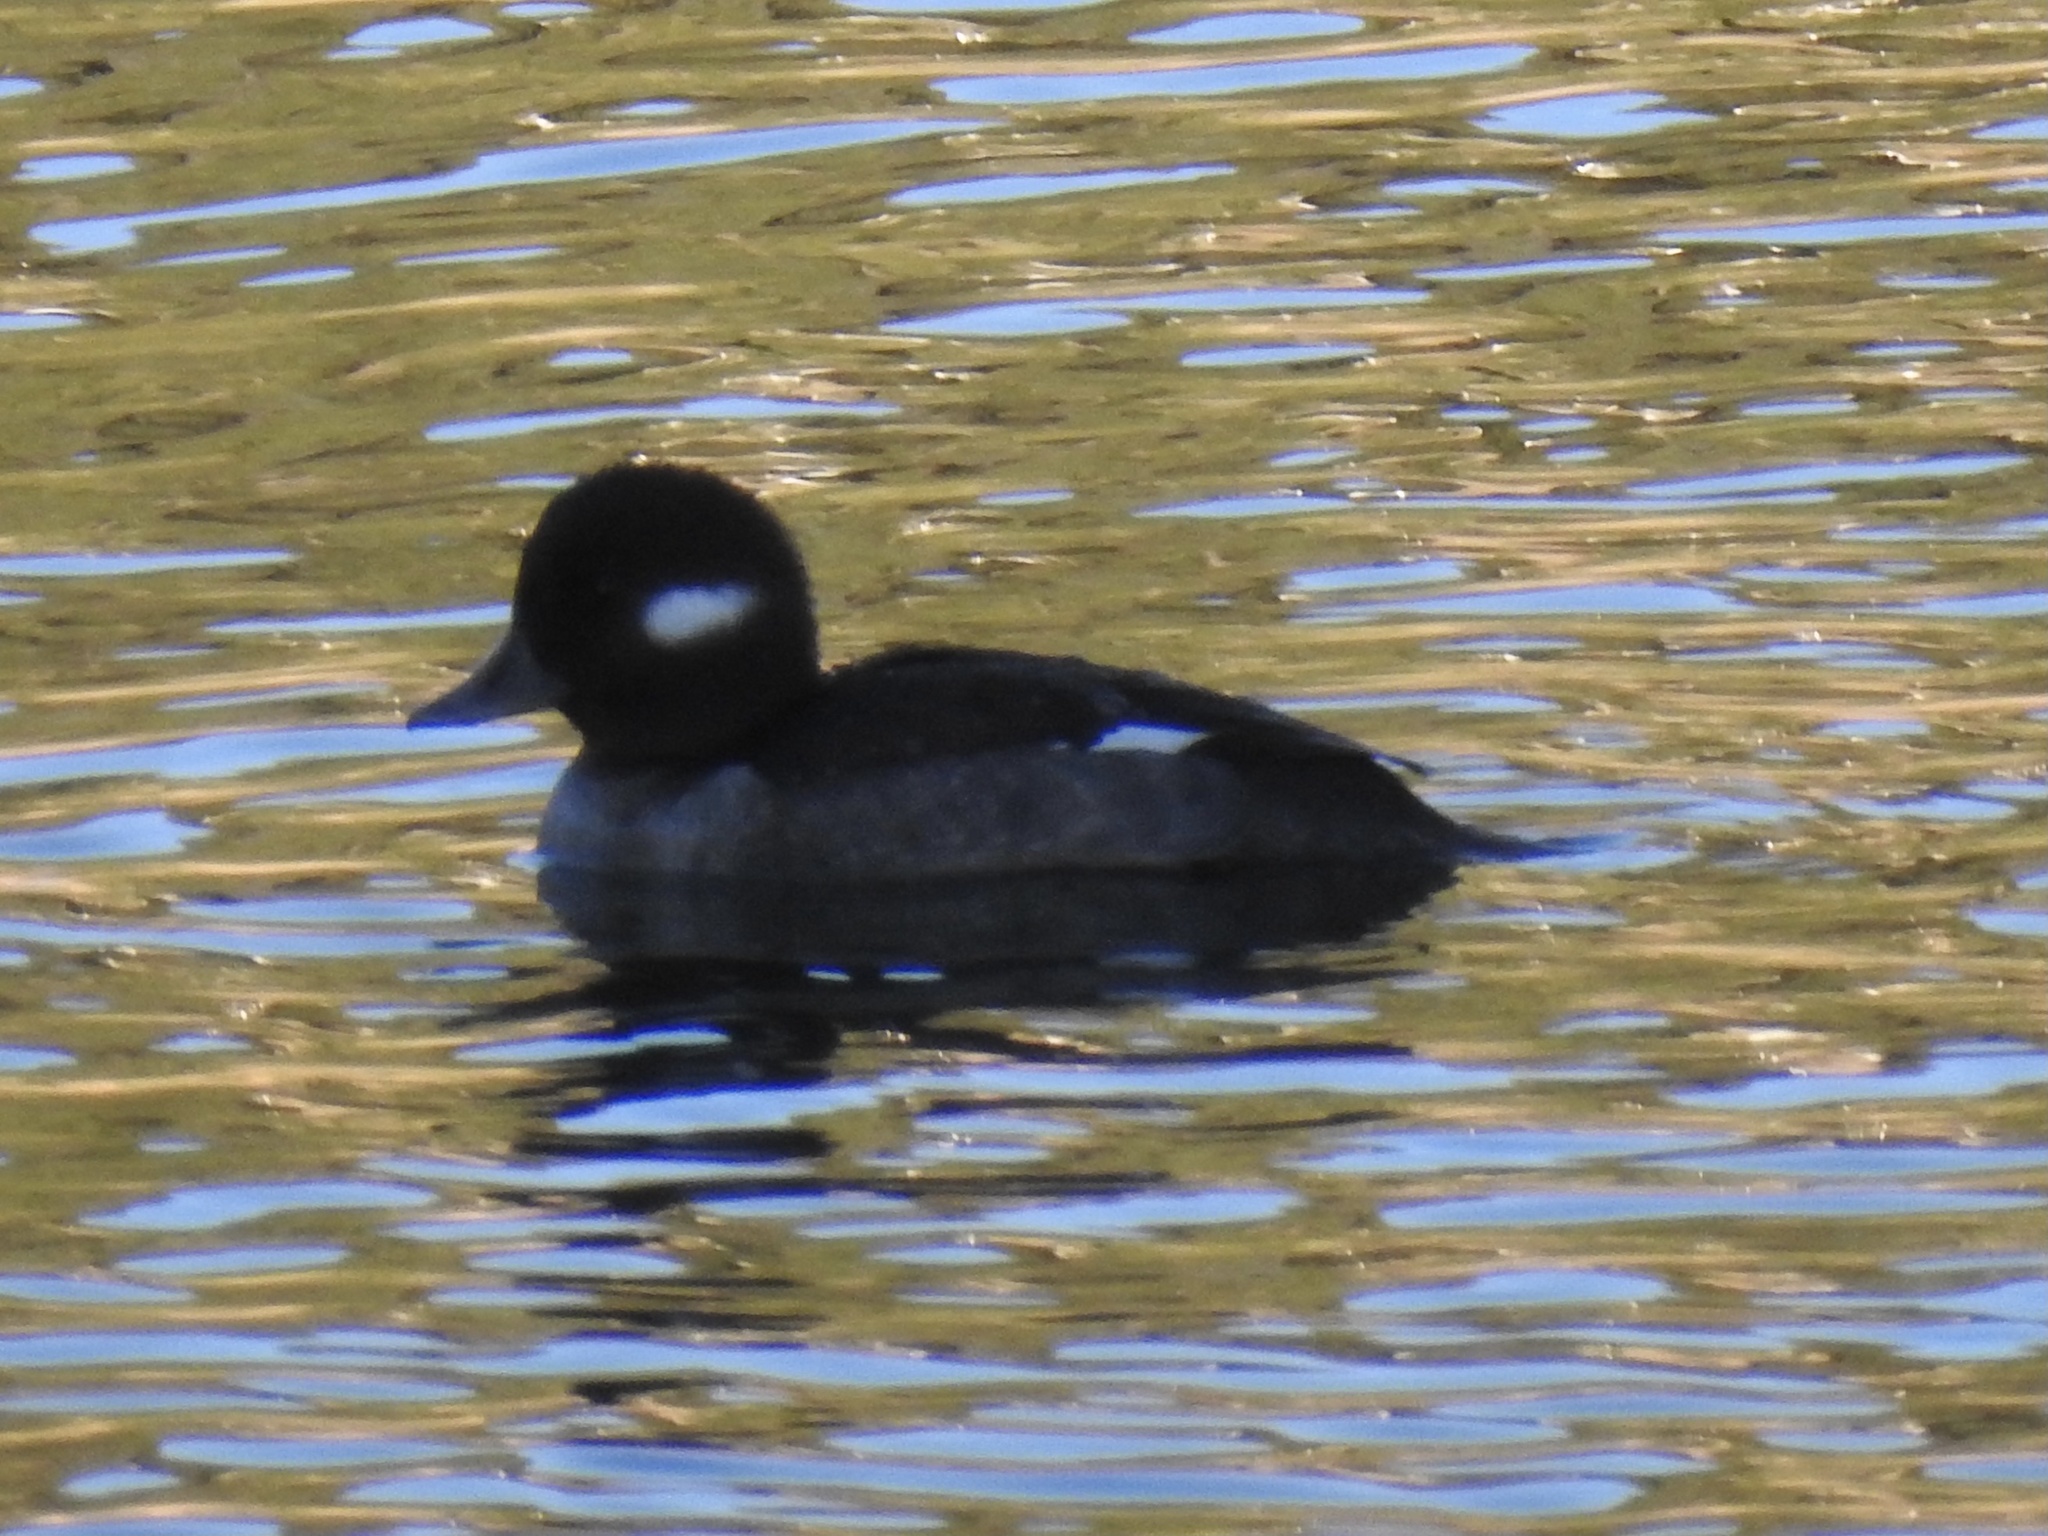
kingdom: Animalia
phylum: Chordata
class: Aves
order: Anseriformes
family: Anatidae
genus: Bucephala
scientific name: Bucephala albeola
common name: Bufflehead
